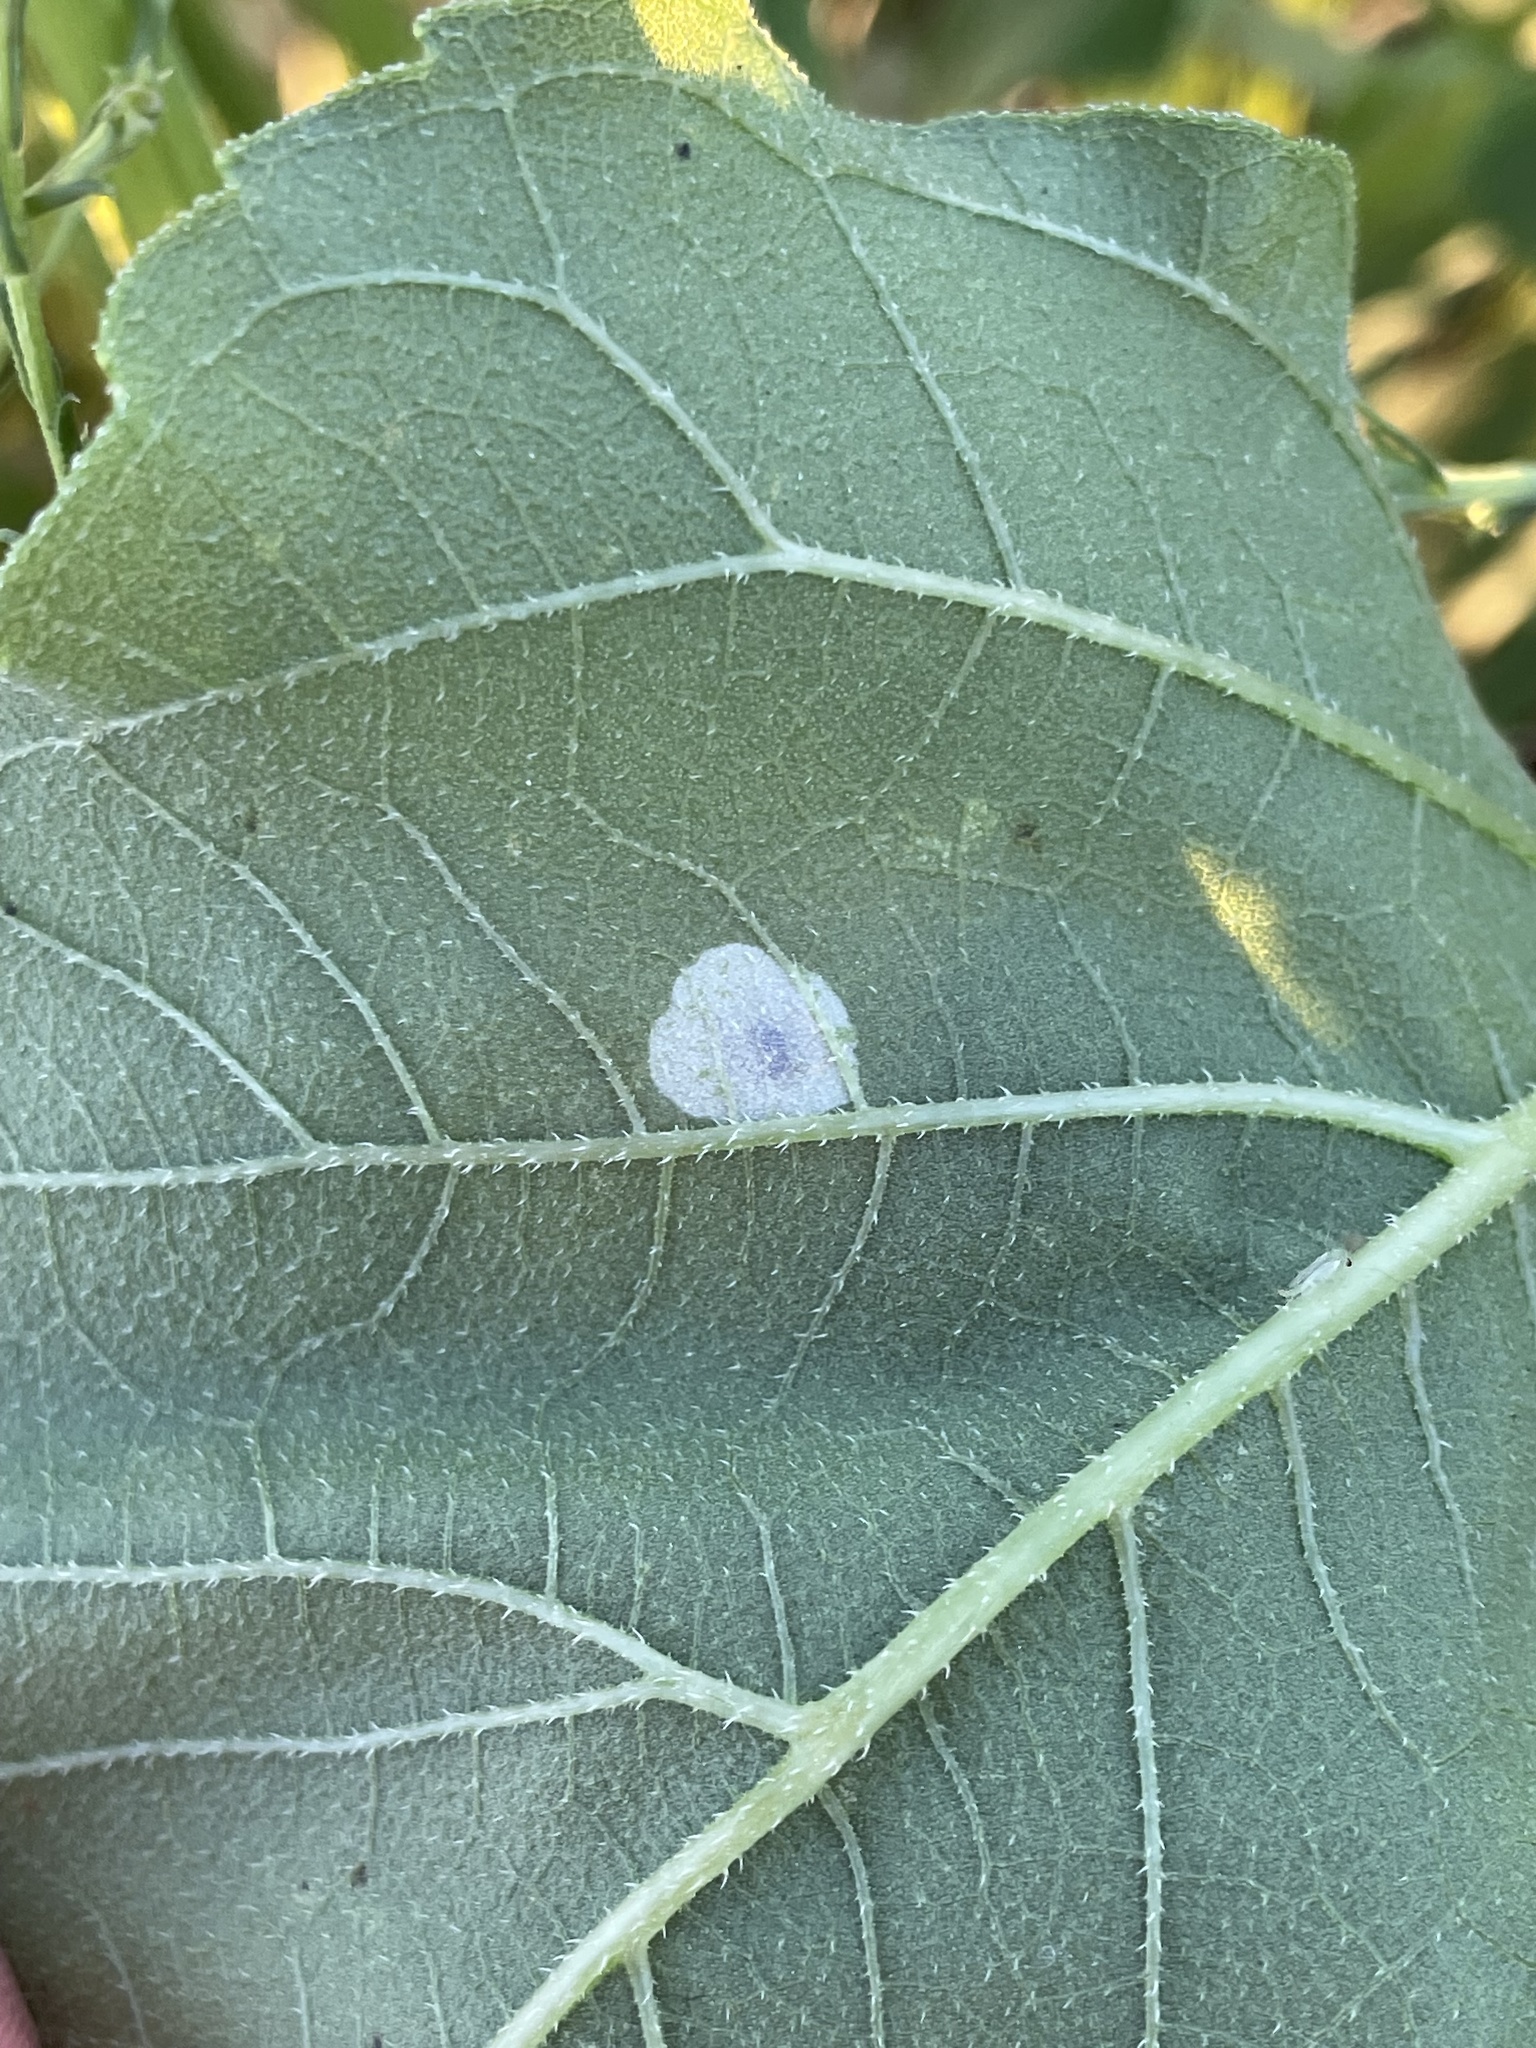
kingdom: Animalia
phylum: Arthropoda
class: Insecta
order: Diptera
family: Agromyzidae
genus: Calycomyza
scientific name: Calycomyza platyptera
